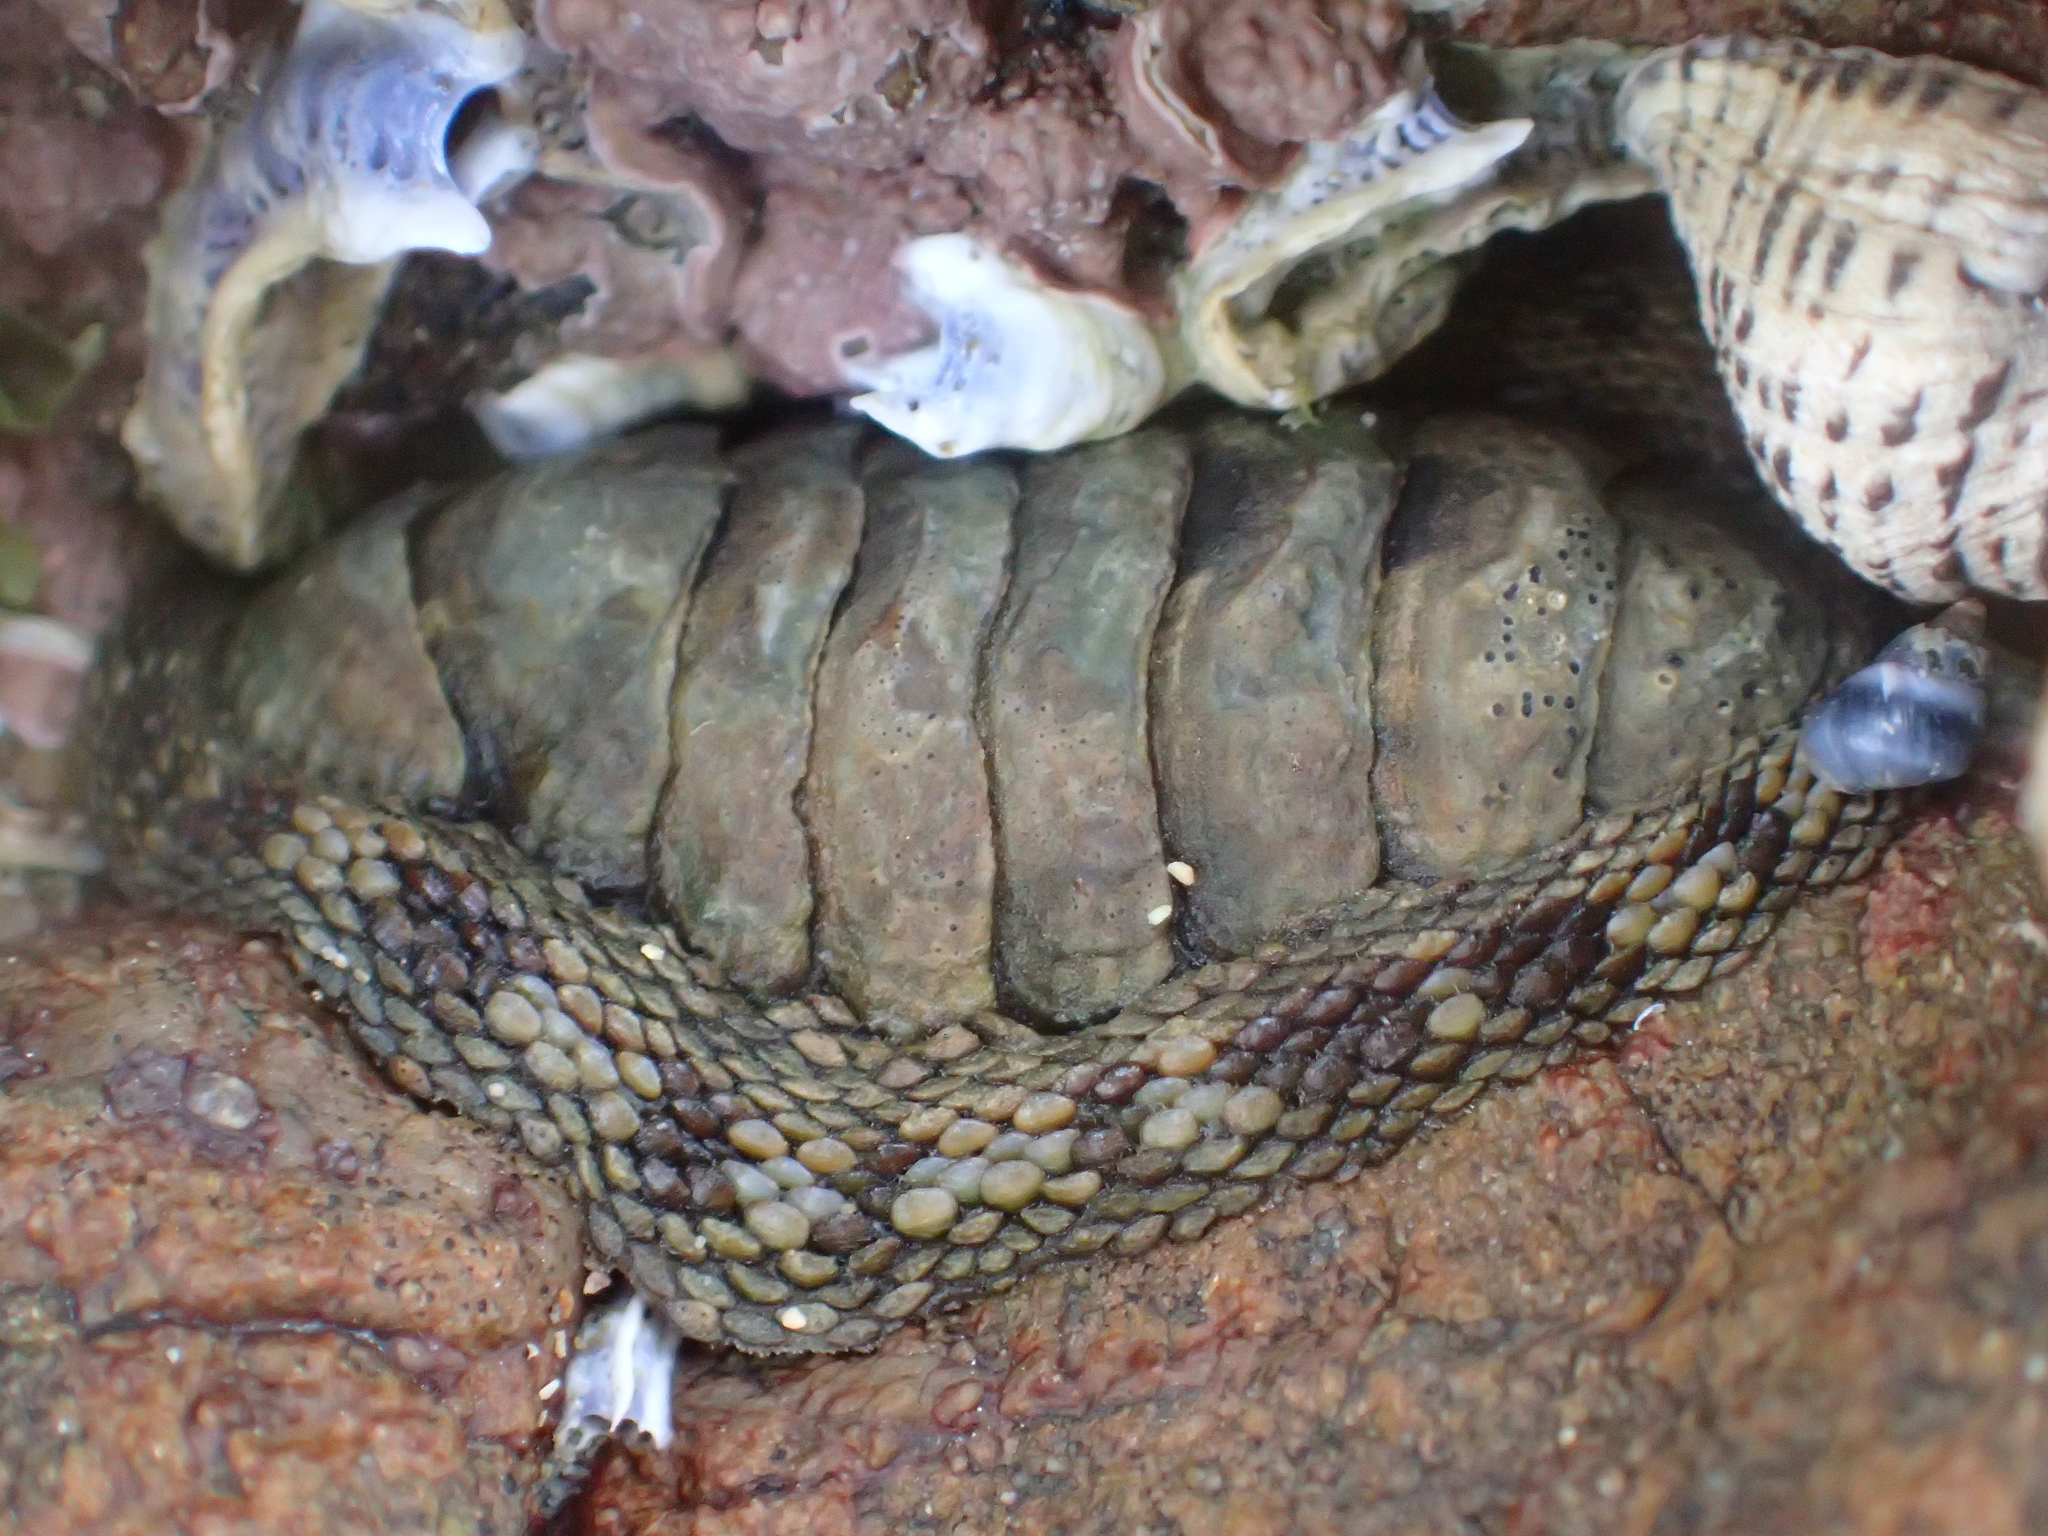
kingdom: Animalia
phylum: Mollusca
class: Polyplacophora
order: Chitonida
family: Chitonidae
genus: Sypharochiton
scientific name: Sypharochiton pelliserpentis
